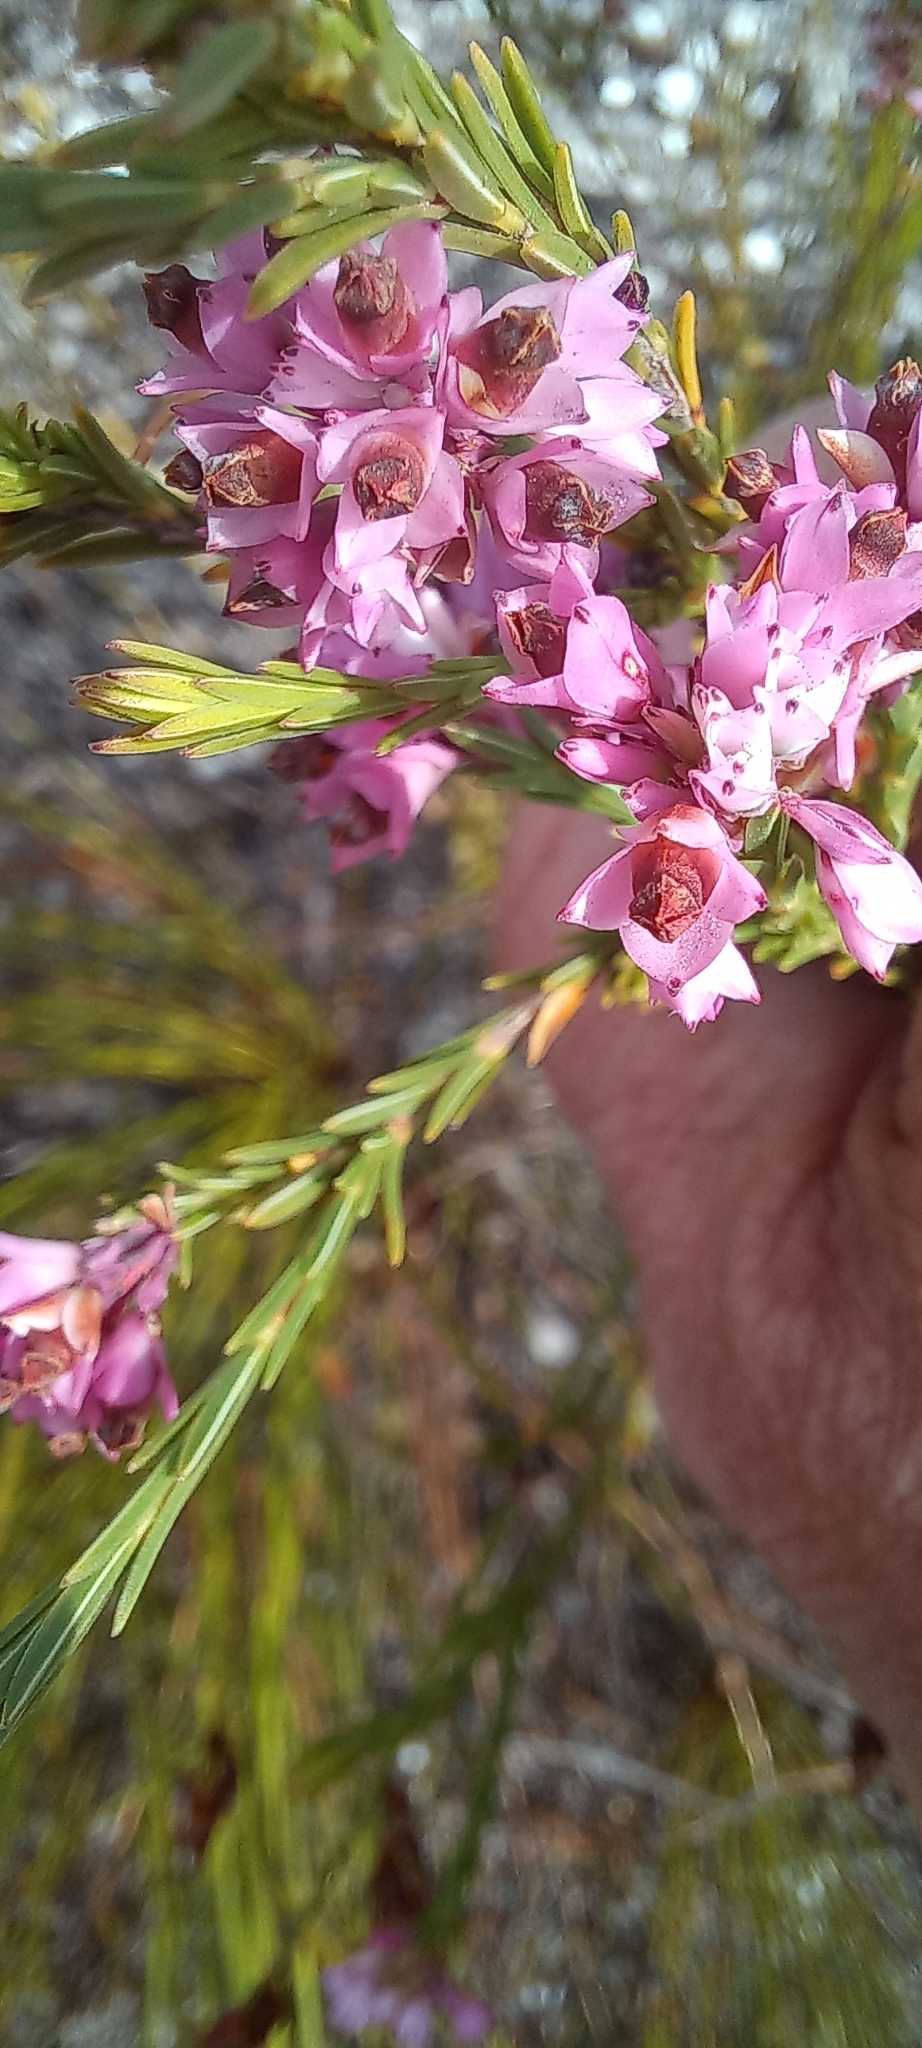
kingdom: Plantae
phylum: Tracheophyta
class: Magnoliopsida
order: Ericales
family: Ericaceae
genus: Erica
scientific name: Erica corifolia
